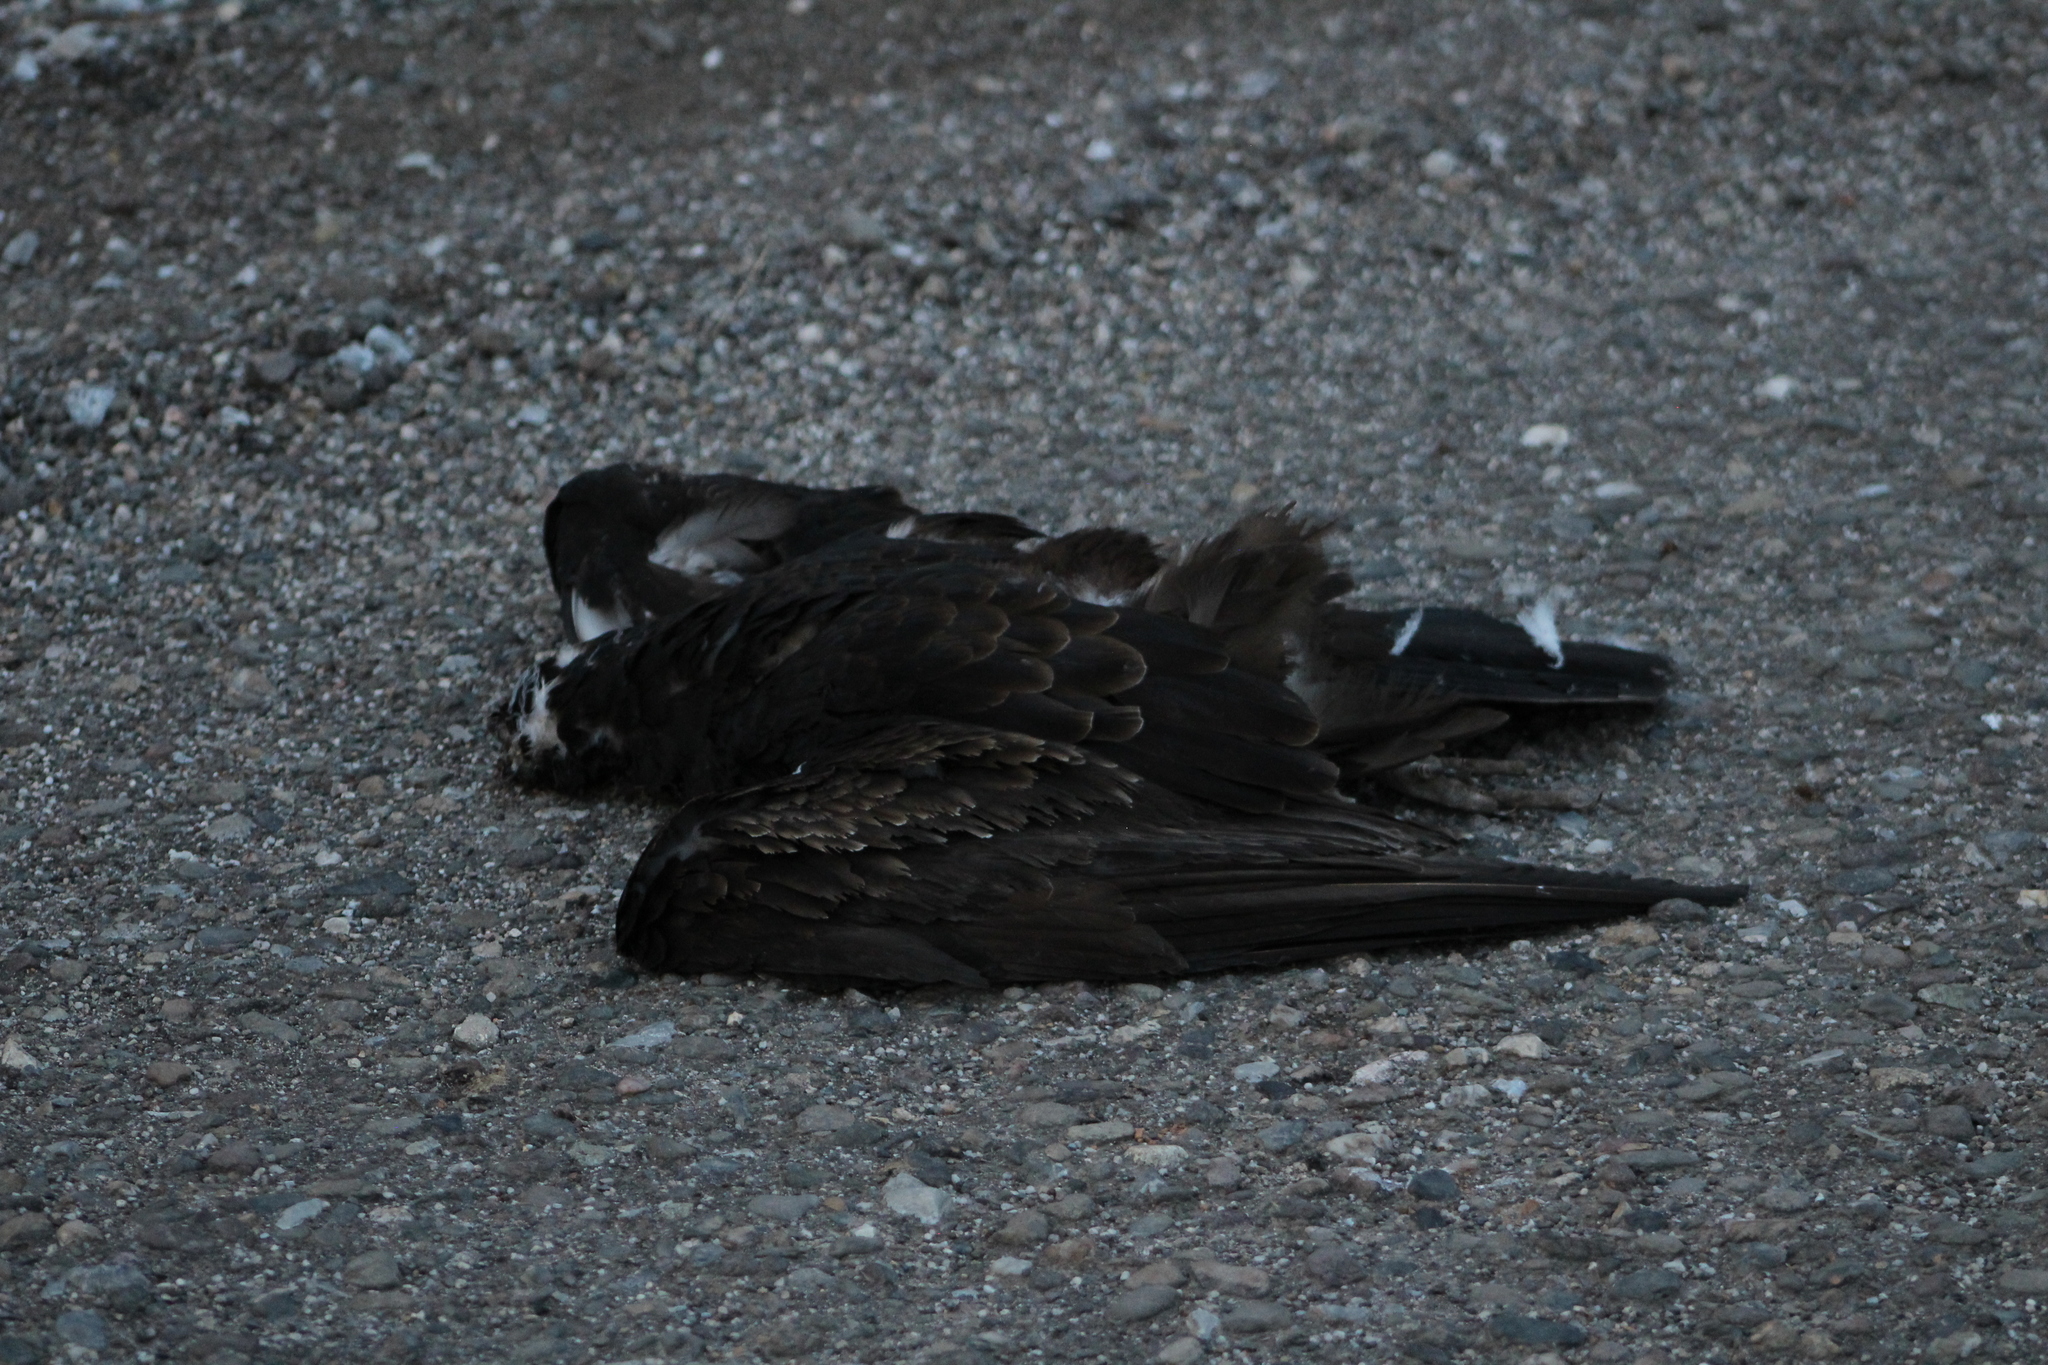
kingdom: Animalia
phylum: Chordata
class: Aves
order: Accipitriformes
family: Cathartidae
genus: Coragyps
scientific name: Coragyps atratus
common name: Black vulture
